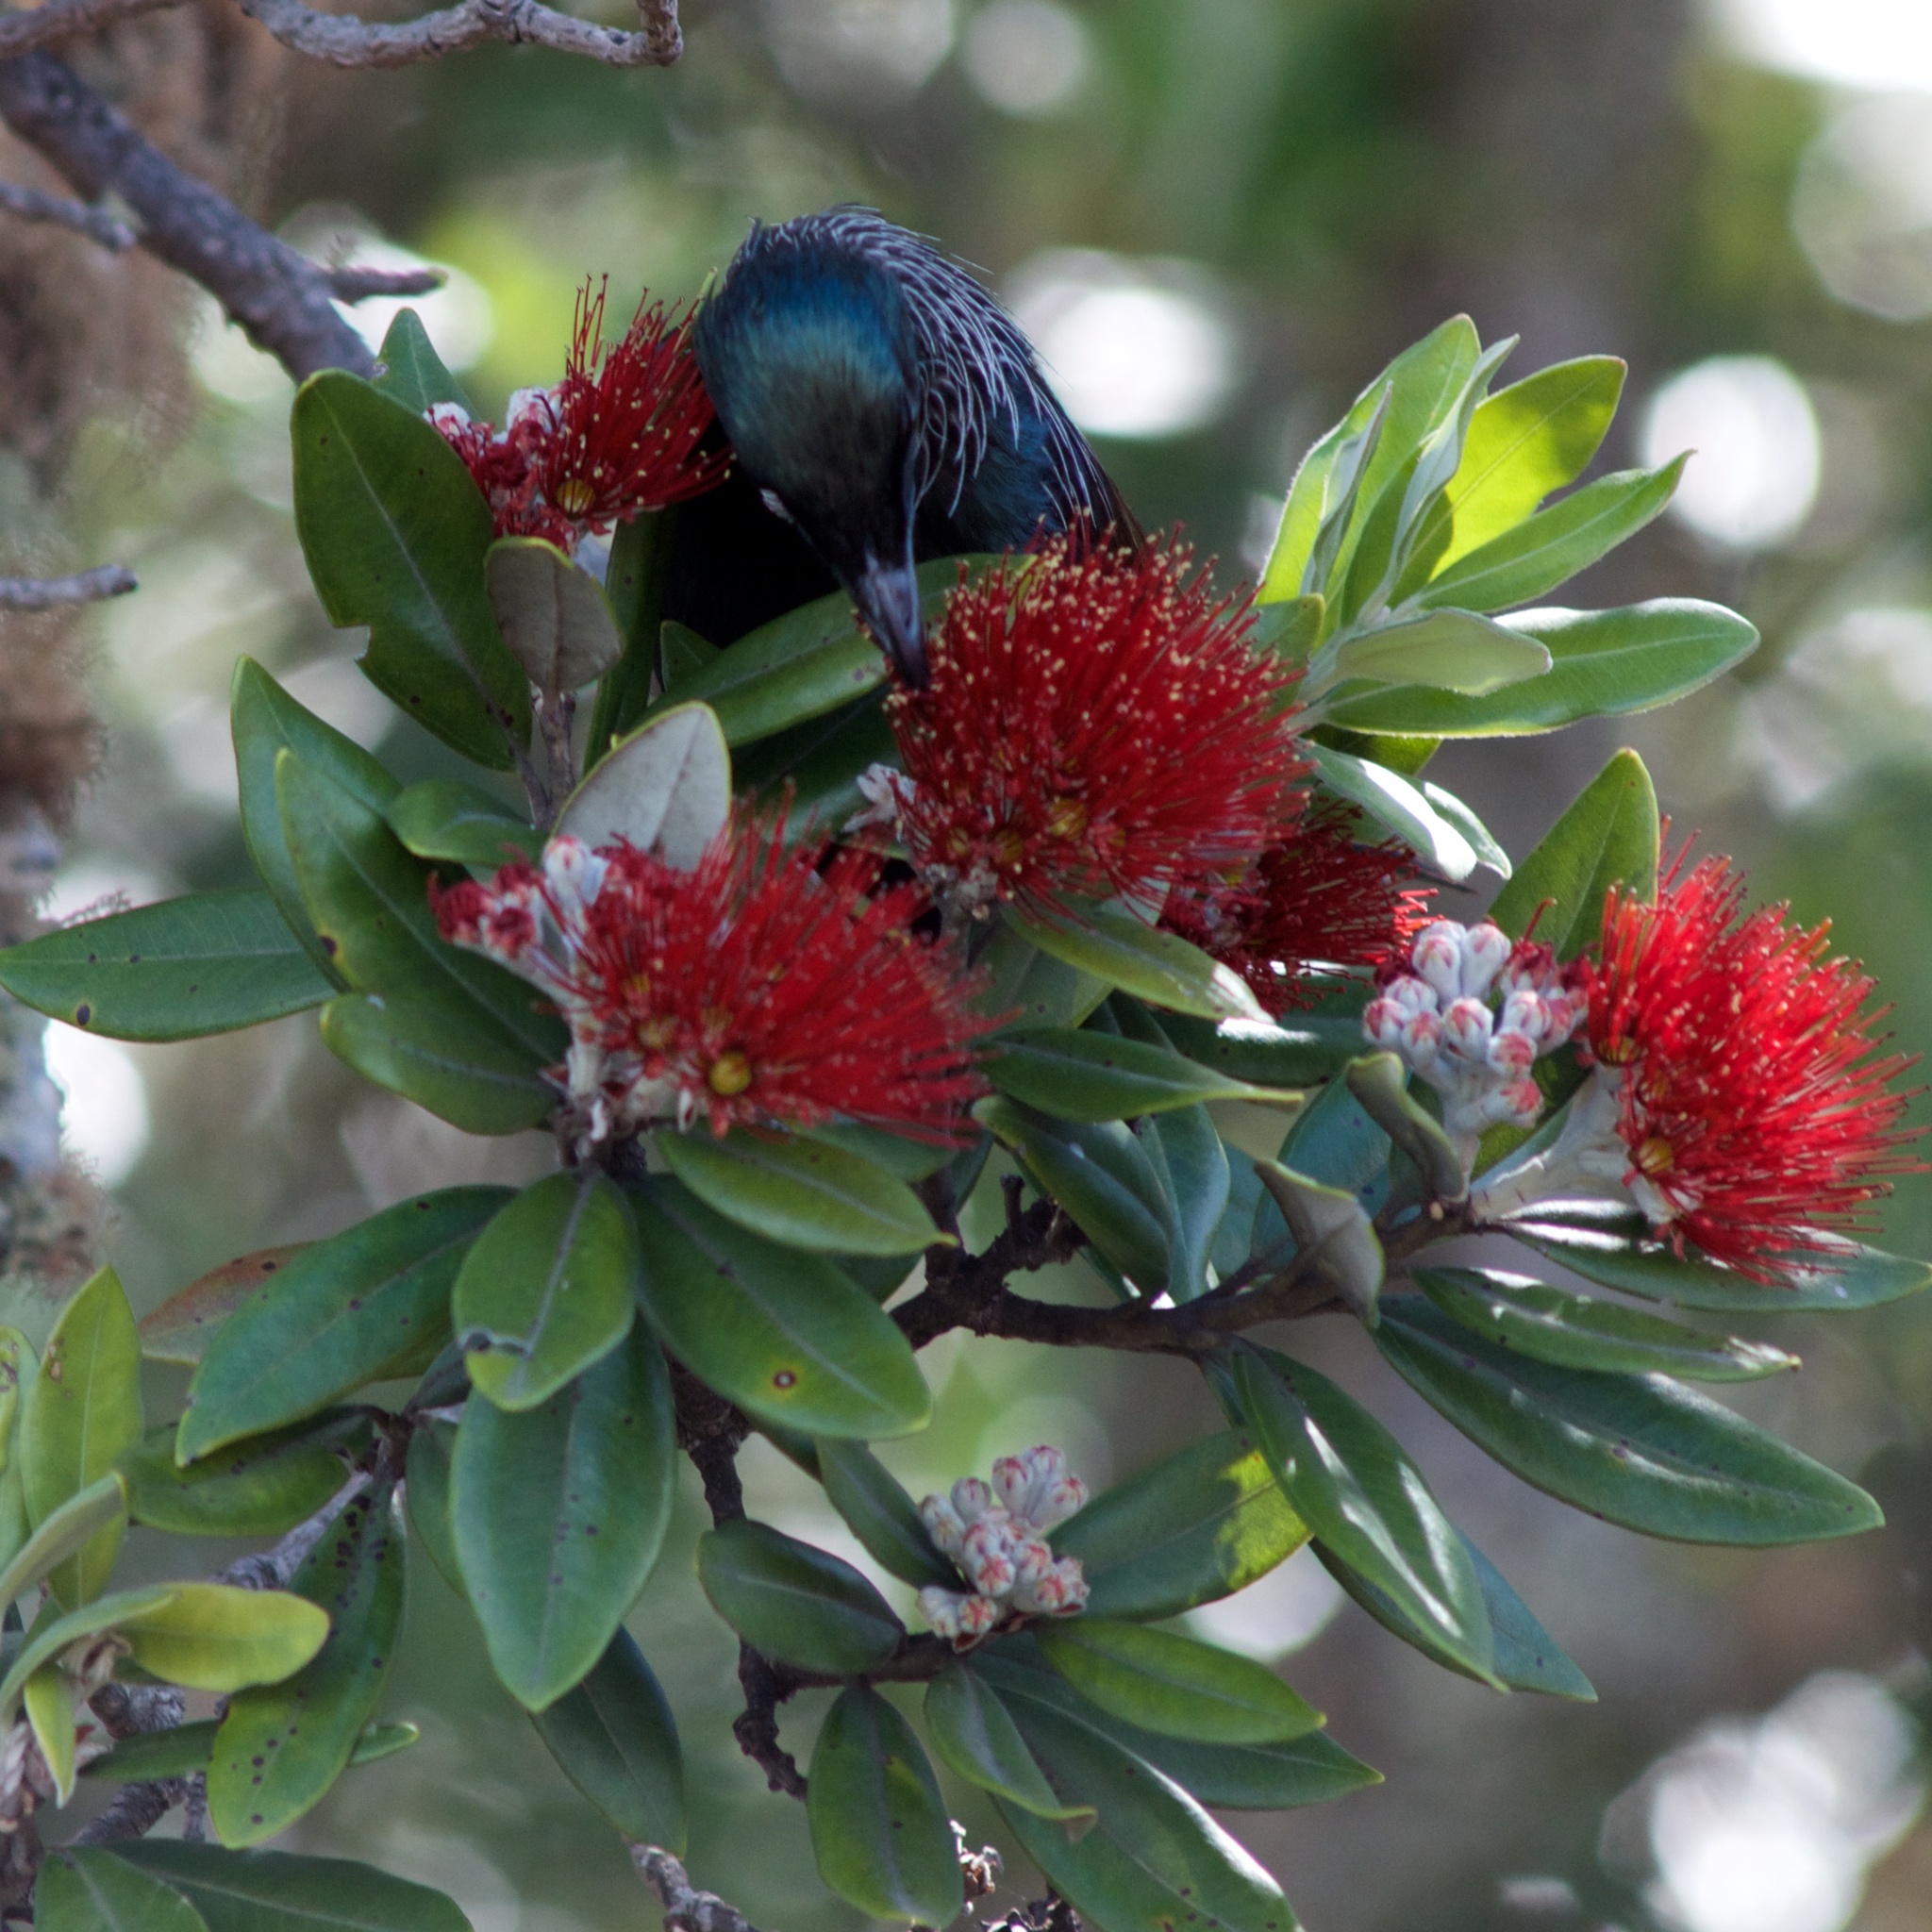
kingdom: Animalia
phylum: Chordata
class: Aves
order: Passeriformes
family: Meliphagidae
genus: Prosthemadera
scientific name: Prosthemadera novaeseelandiae
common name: Tui
